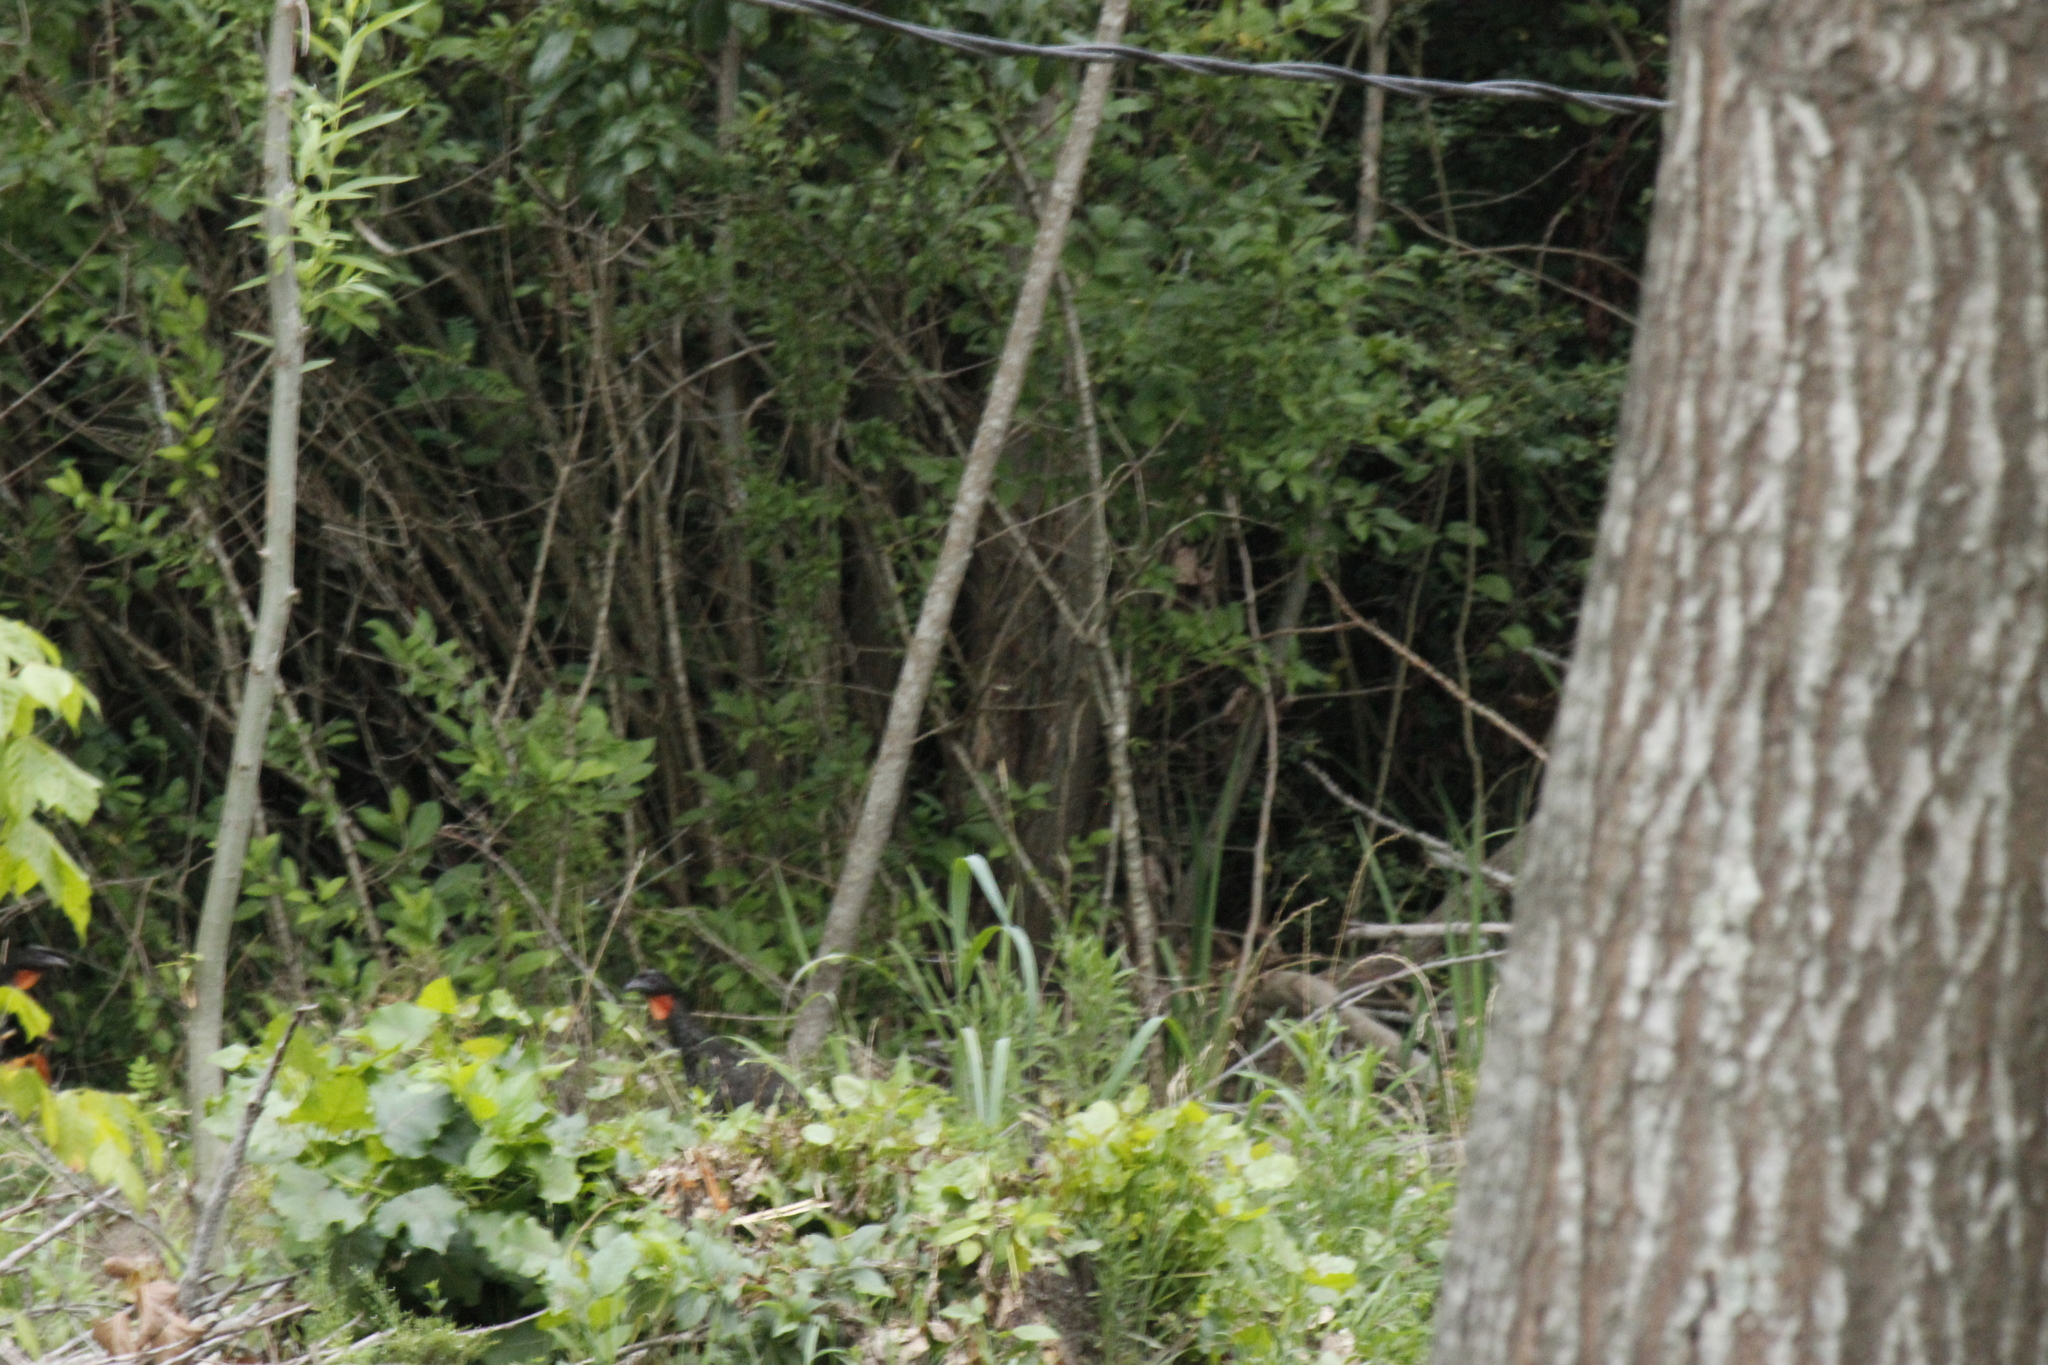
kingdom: Animalia
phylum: Chordata
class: Aves
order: Galliformes
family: Cracidae
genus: Penelope
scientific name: Penelope obscura
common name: Dusky-legged guan
